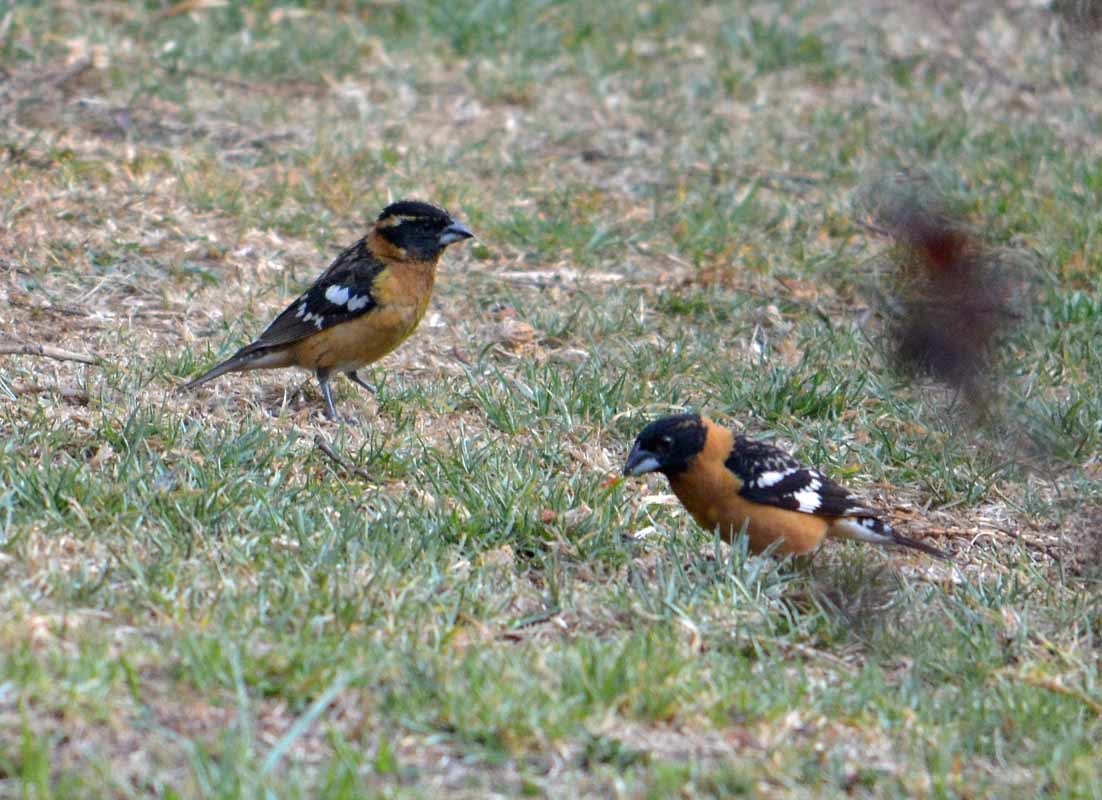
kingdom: Animalia
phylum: Chordata
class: Aves
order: Passeriformes
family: Cardinalidae
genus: Pheucticus
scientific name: Pheucticus melanocephalus
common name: Black-headed grosbeak
